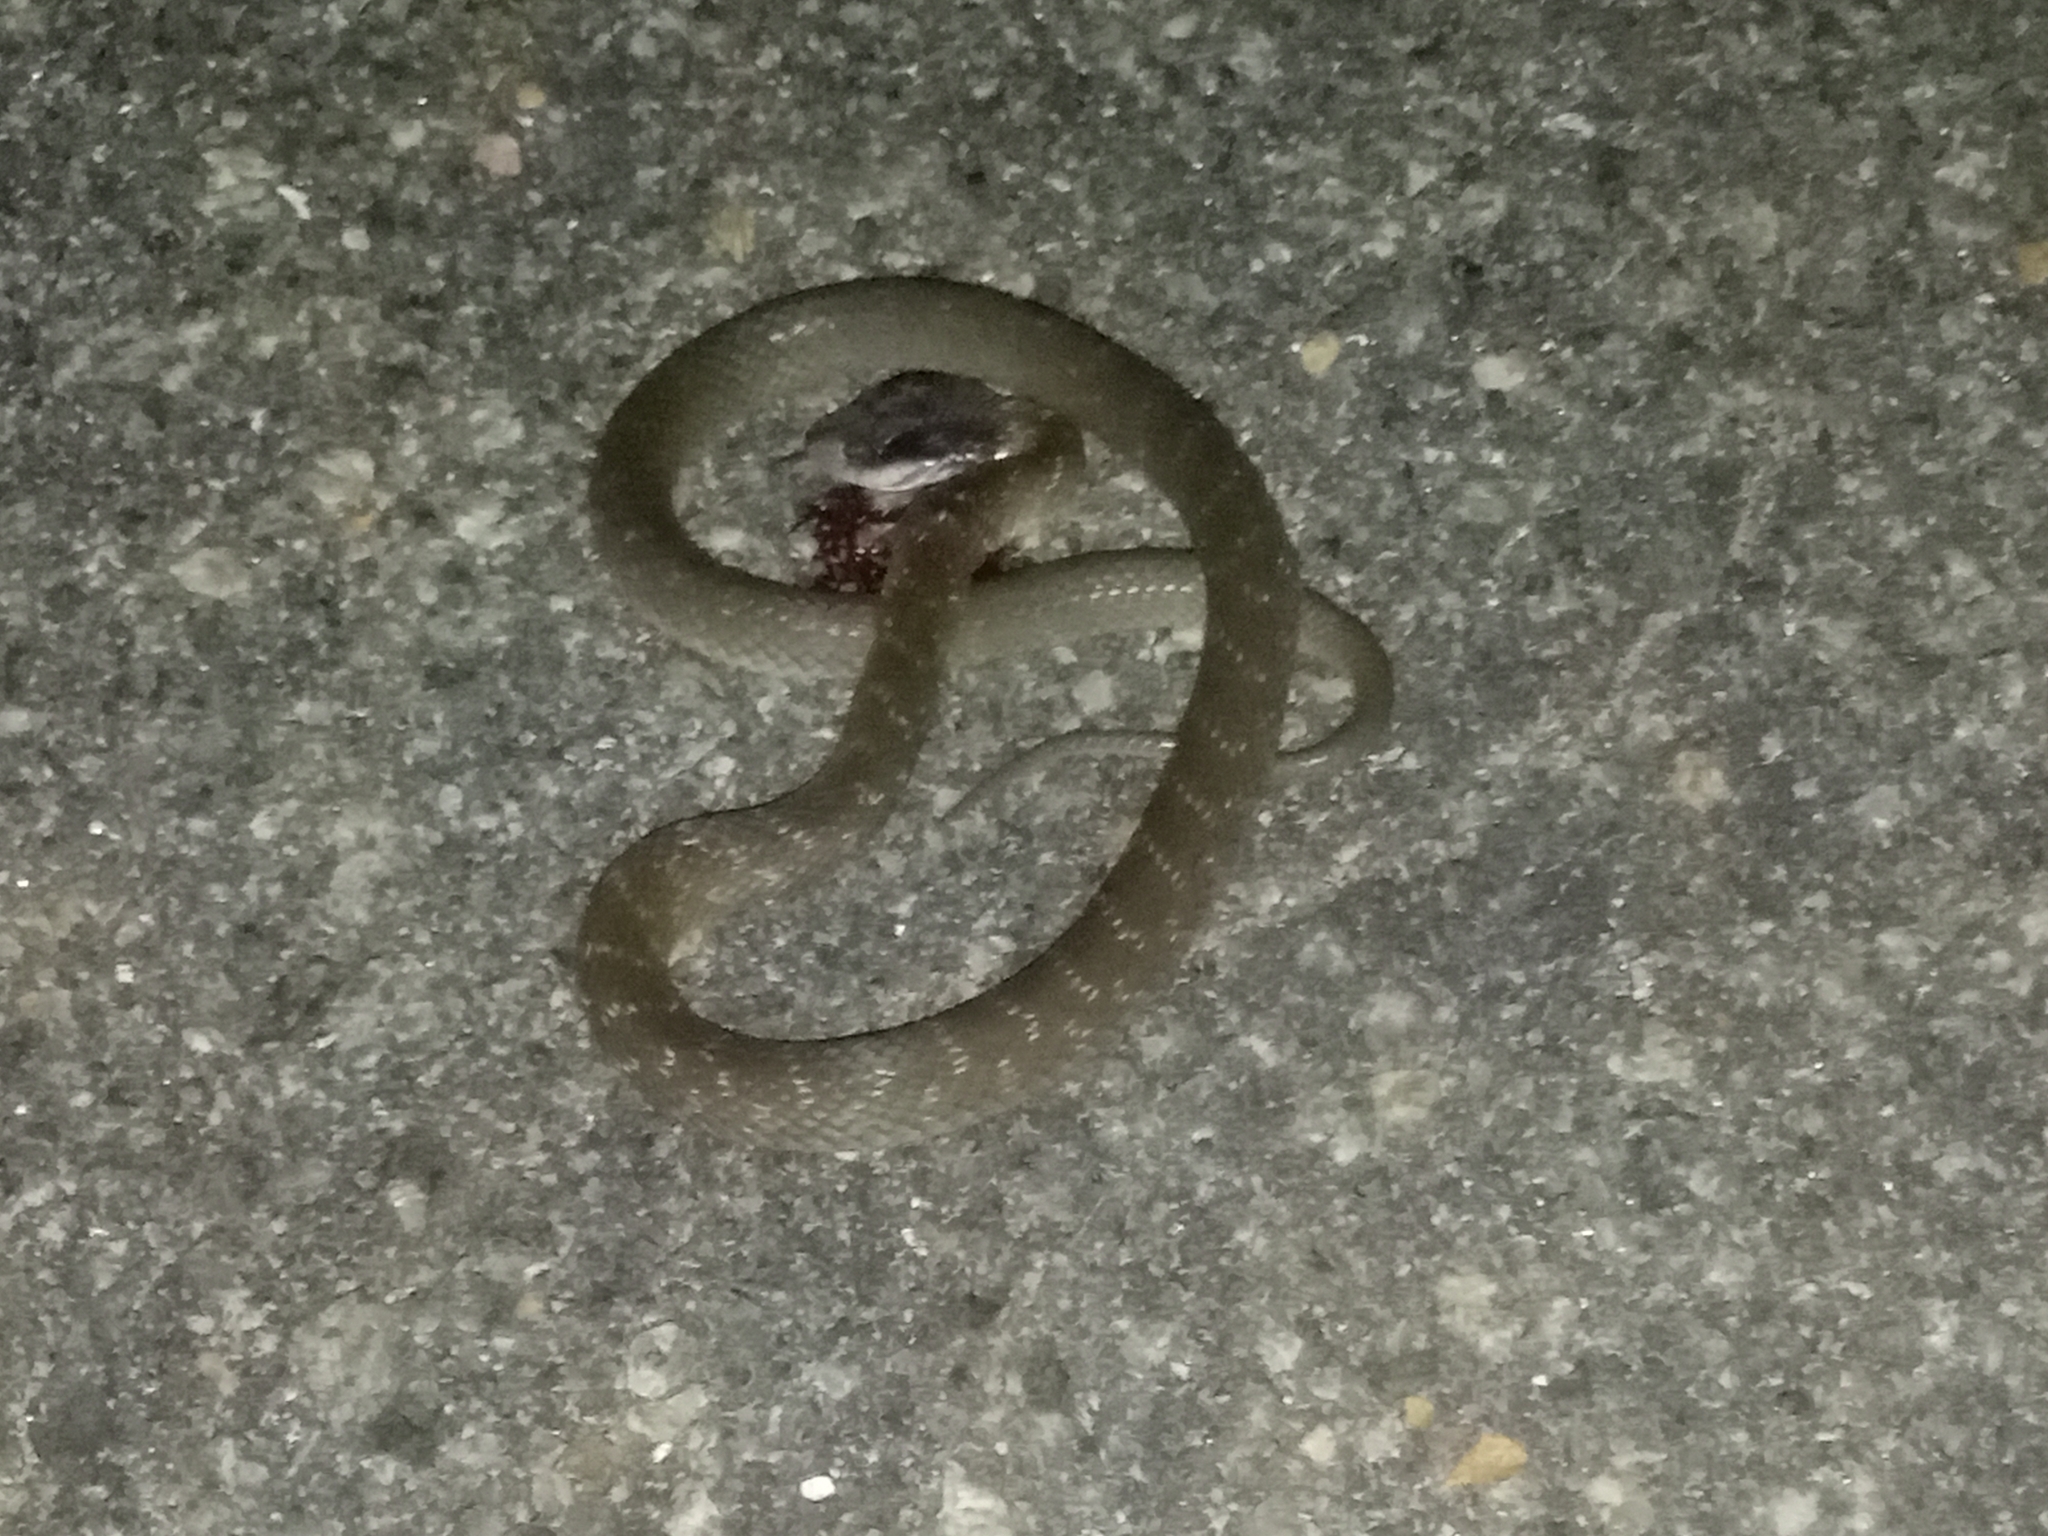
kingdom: Animalia
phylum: Chordata
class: Squamata
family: Colubridae
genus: Crotaphopeltis
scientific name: Crotaphopeltis hotamboeia
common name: Red-lipped snake
